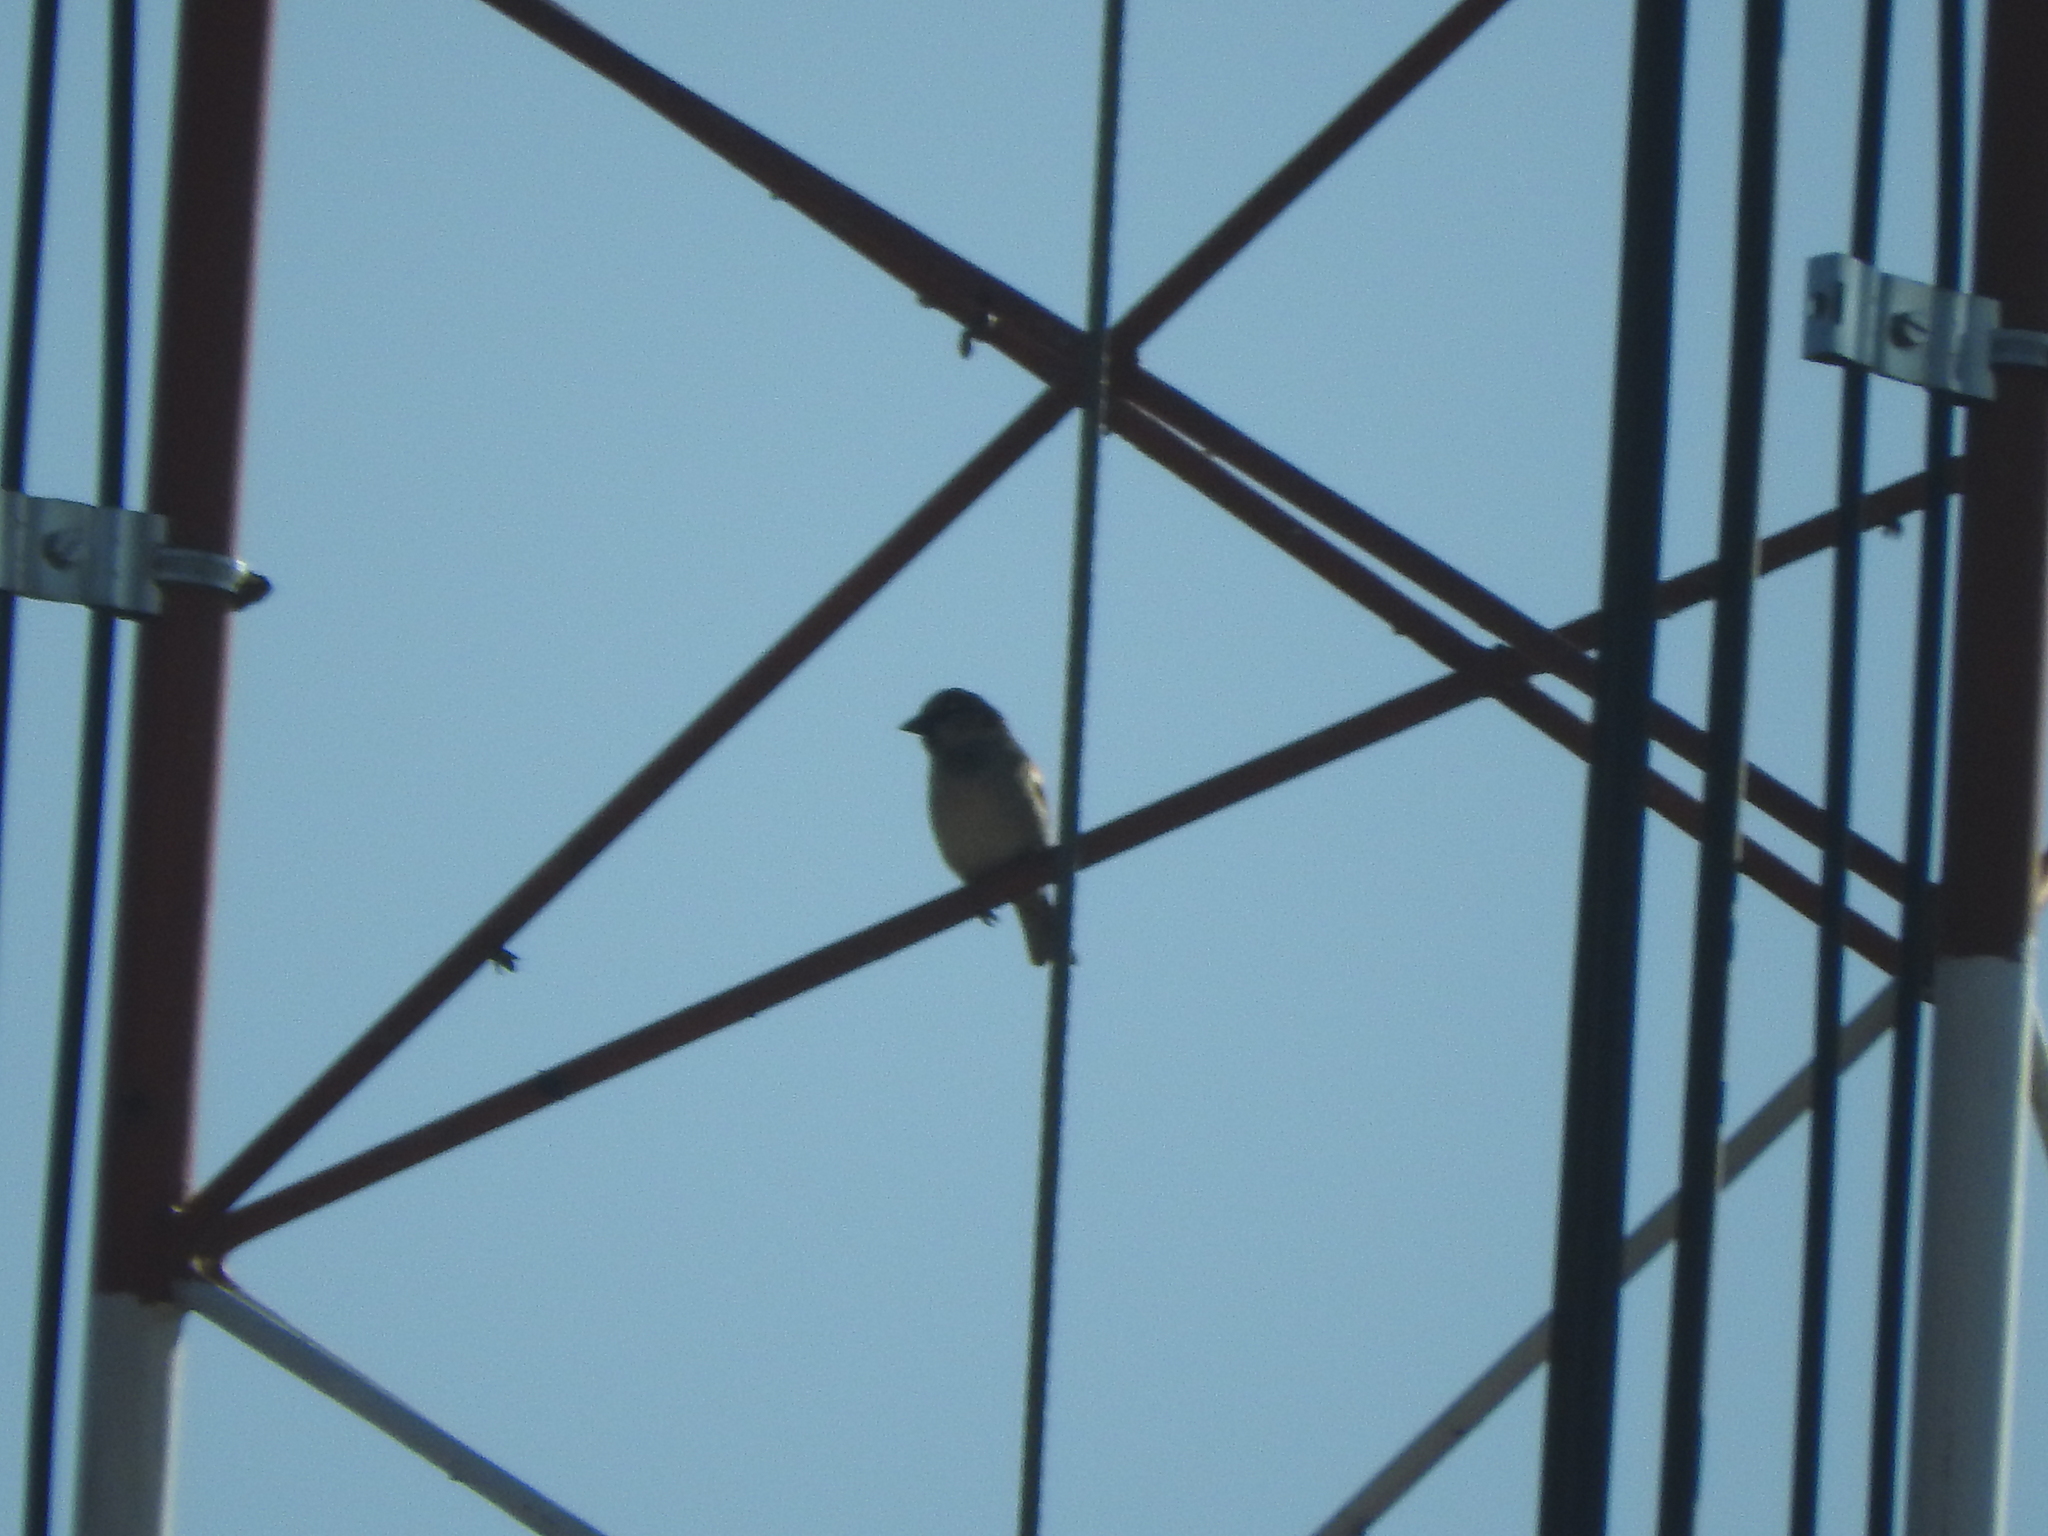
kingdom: Animalia
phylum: Chordata
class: Aves
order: Passeriformes
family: Passeridae
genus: Passer
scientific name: Passer domesticus
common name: House sparrow
